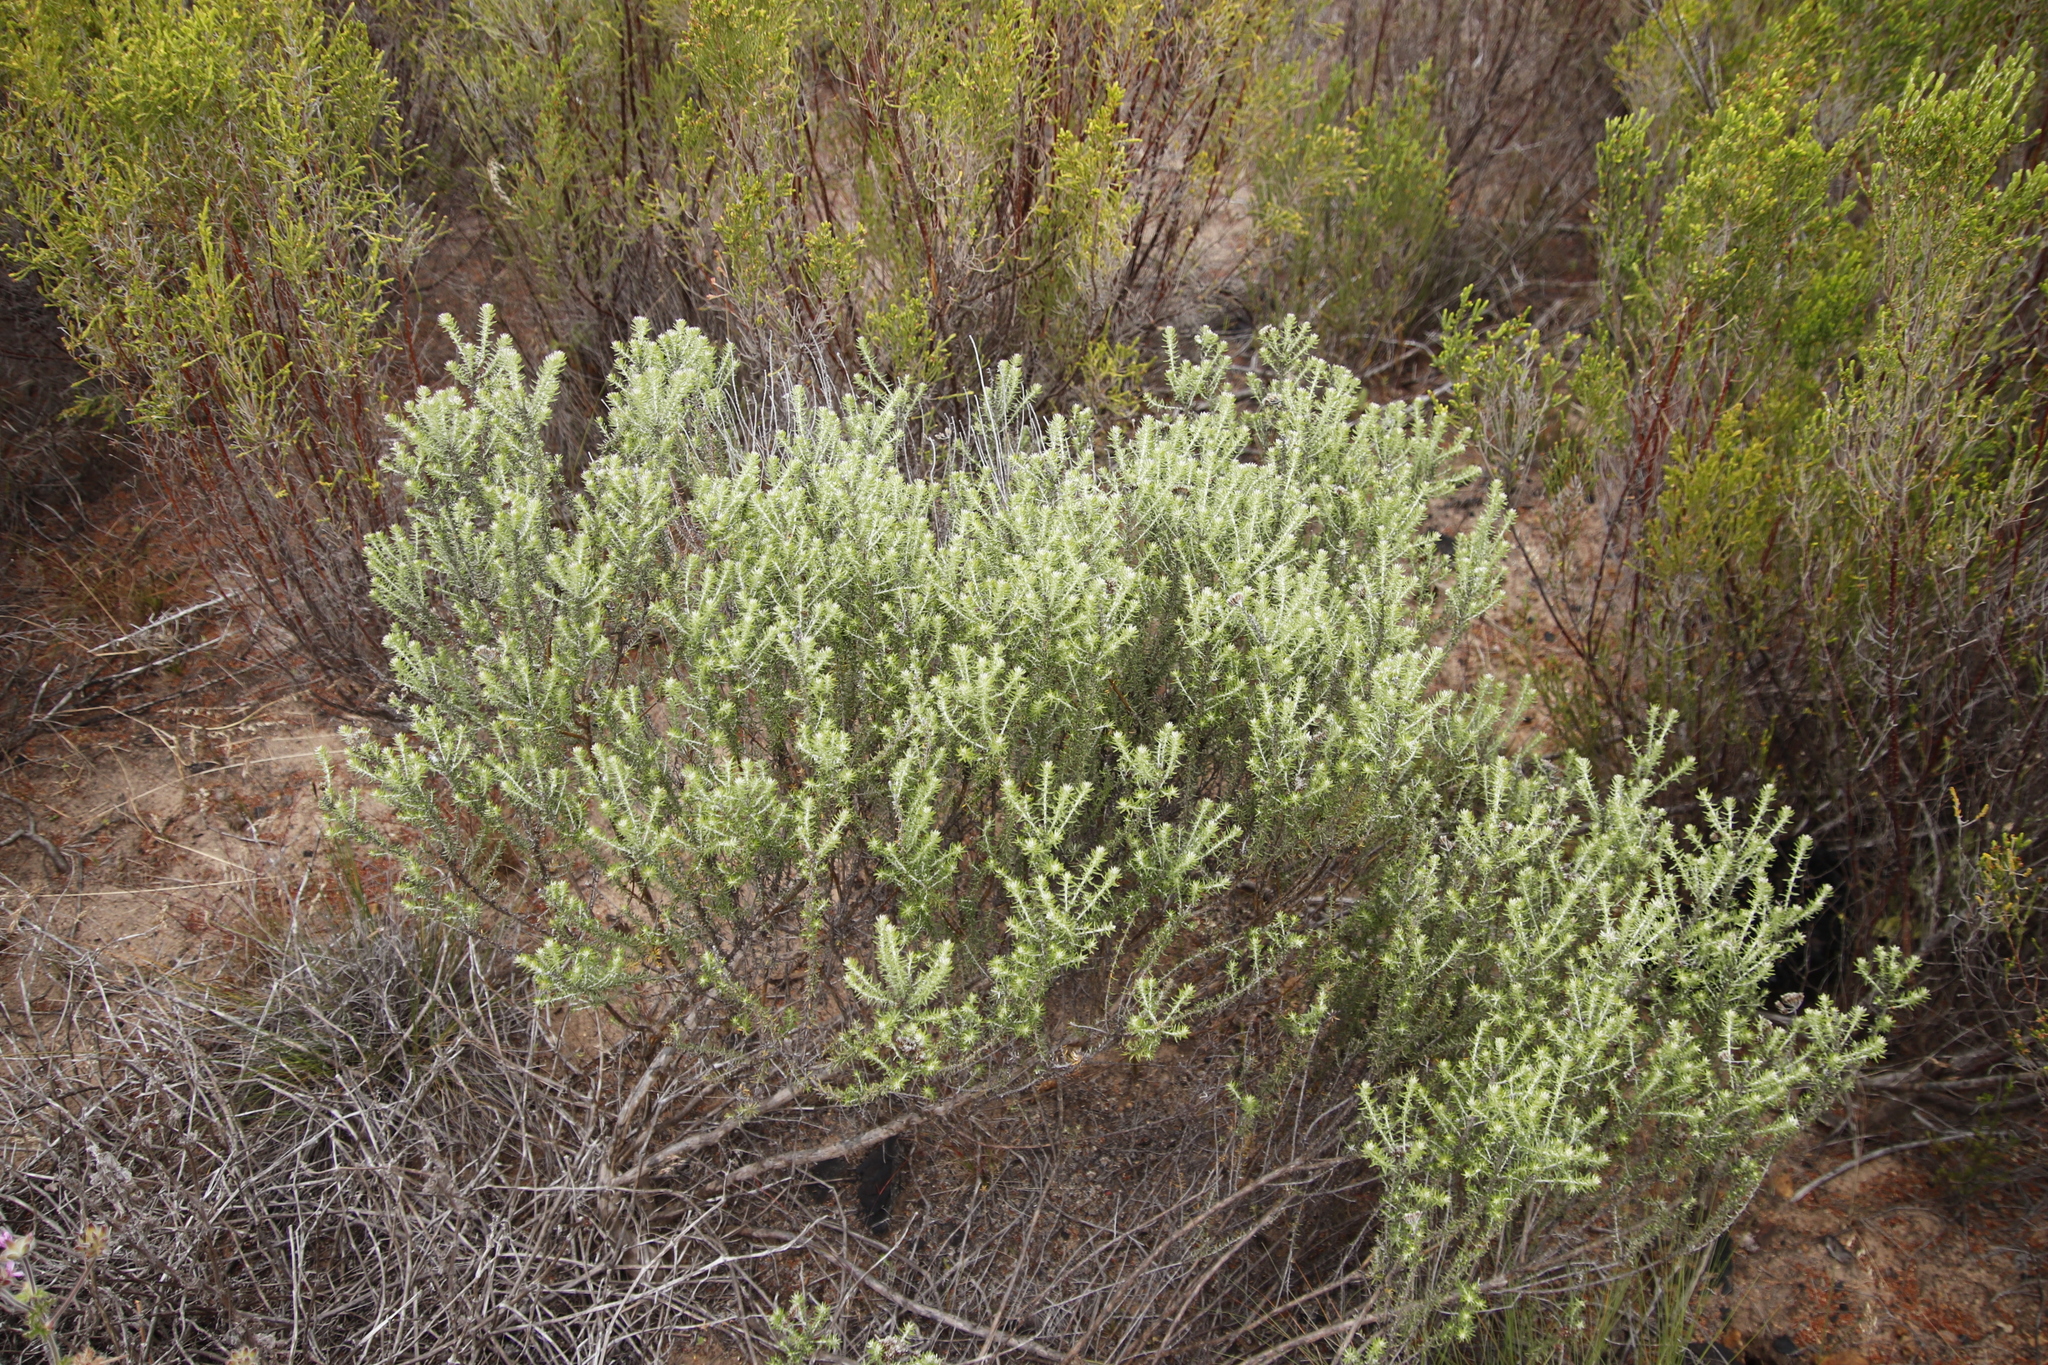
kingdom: Plantae
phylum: Tracheophyta
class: Magnoliopsida
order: Asterales
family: Asteraceae
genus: Metalasia
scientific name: Metalasia densa
